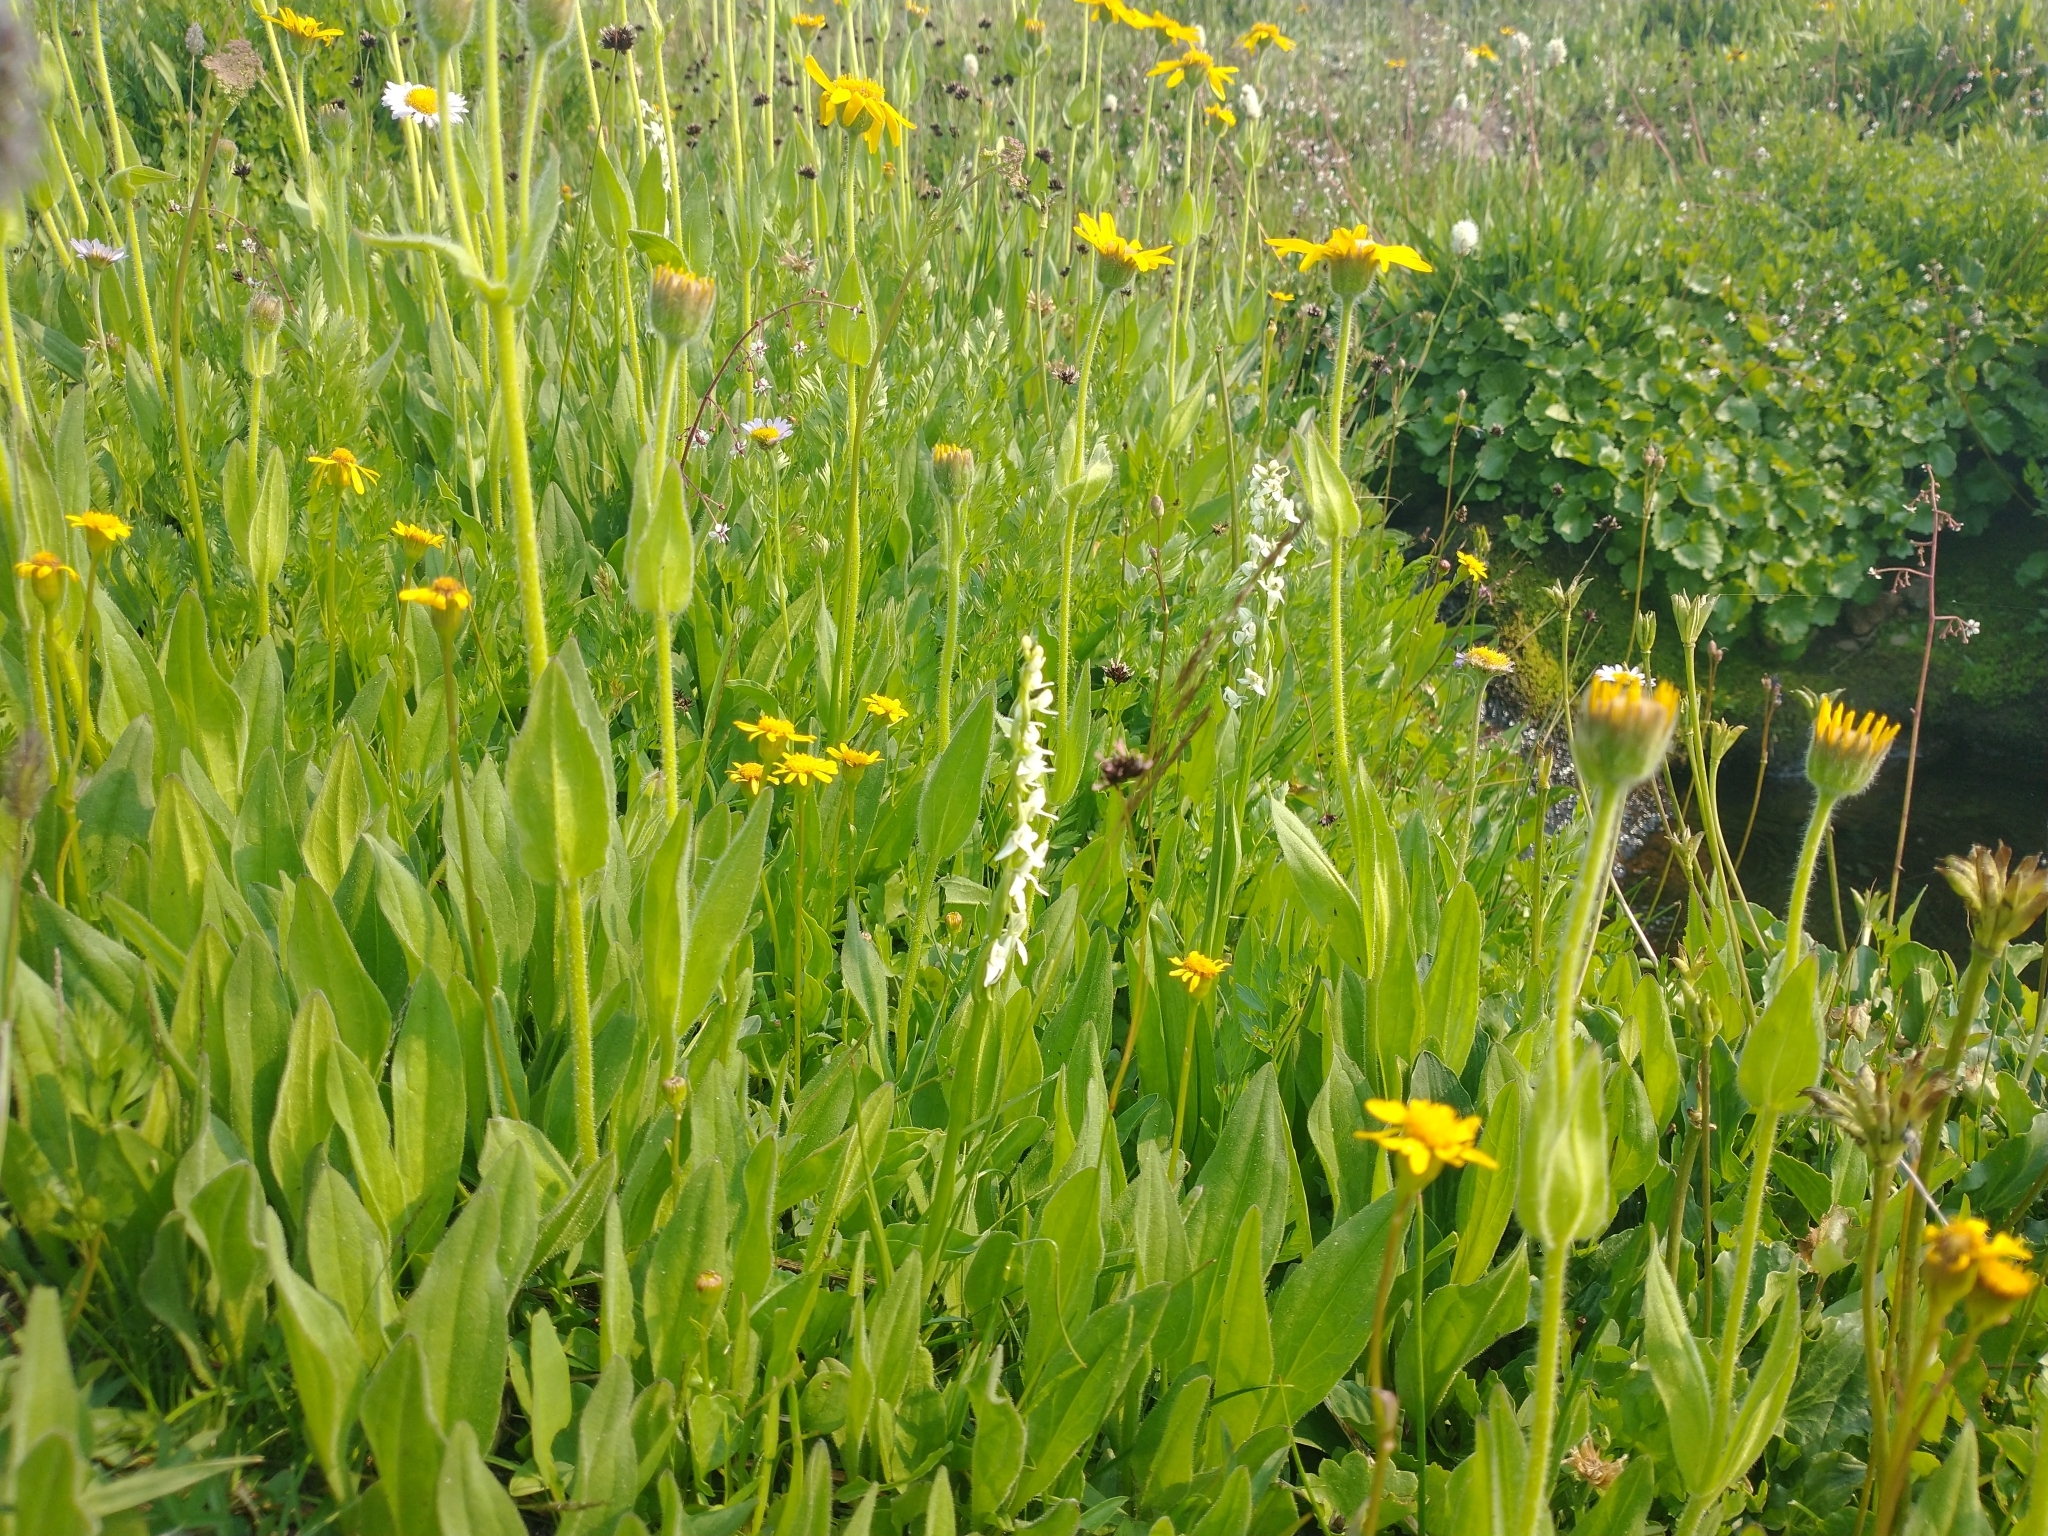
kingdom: Plantae
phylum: Tracheophyta
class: Liliopsida
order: Asparagales
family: Orchidaceae
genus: Platanthera
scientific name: Platanthera dilatata
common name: Bog candles
